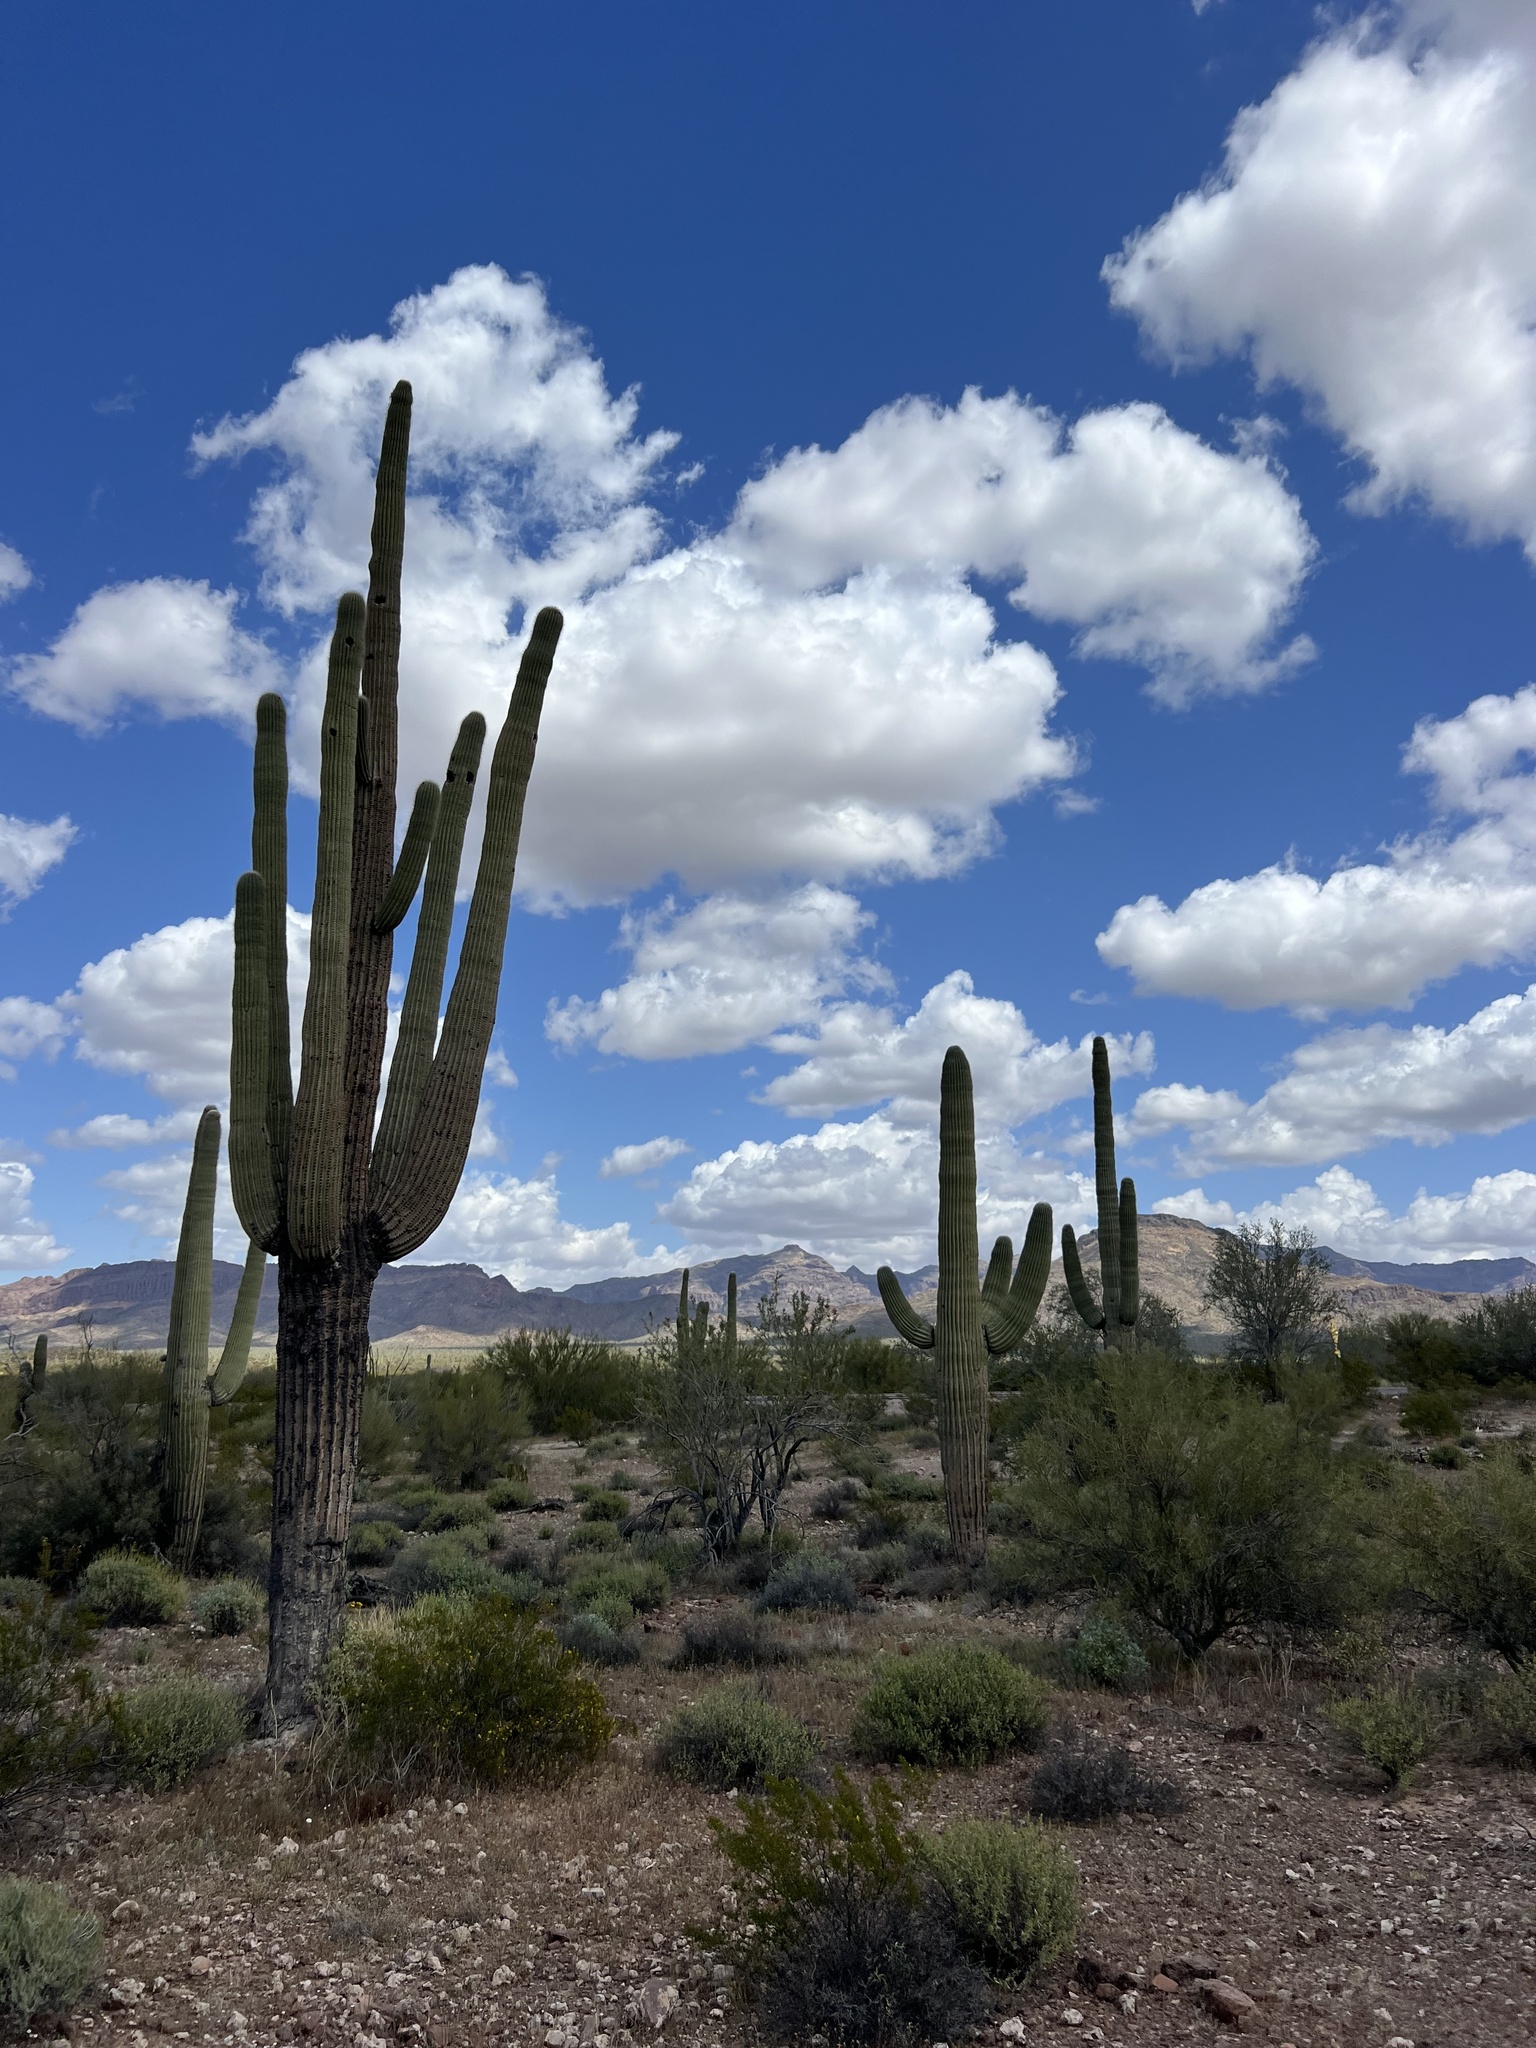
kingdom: Plantae
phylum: Tracheophyta
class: Magnoliopsida
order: Caryophyllales
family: Cactaceae
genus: Carnegiea
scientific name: Carnegiea gigantea
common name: Saguaro
